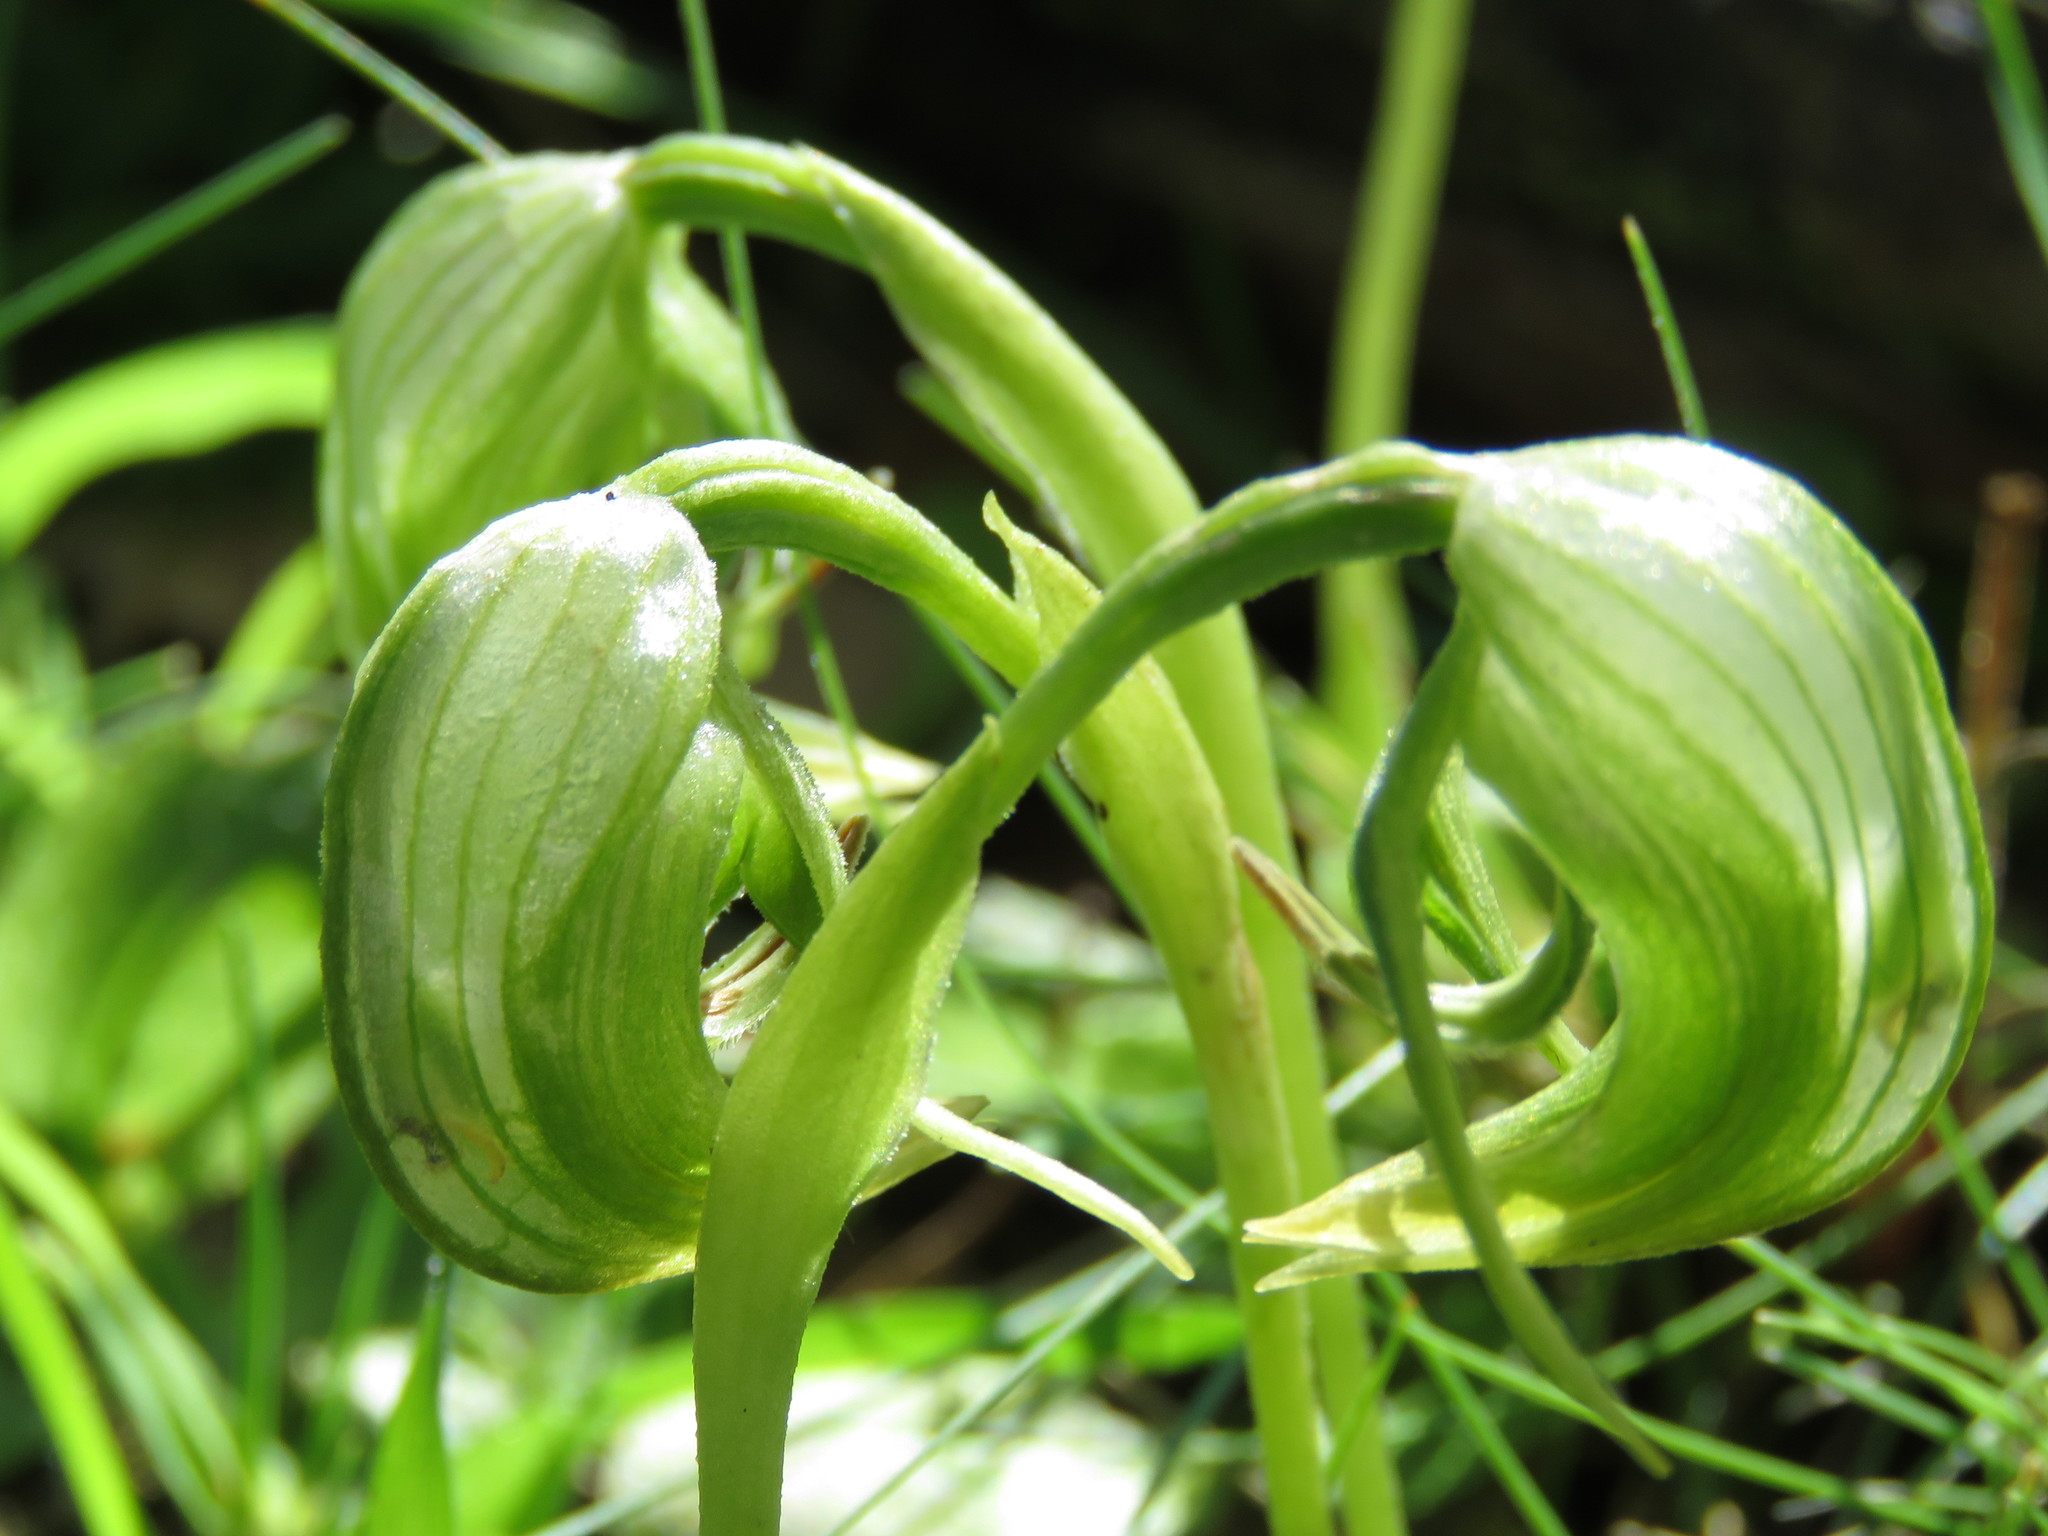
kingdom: Plantae
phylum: Tracheophyta
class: Liliopsida
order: Asparagales
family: Orchidaceae
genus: Pterostylis
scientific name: Pterostylis nutans
